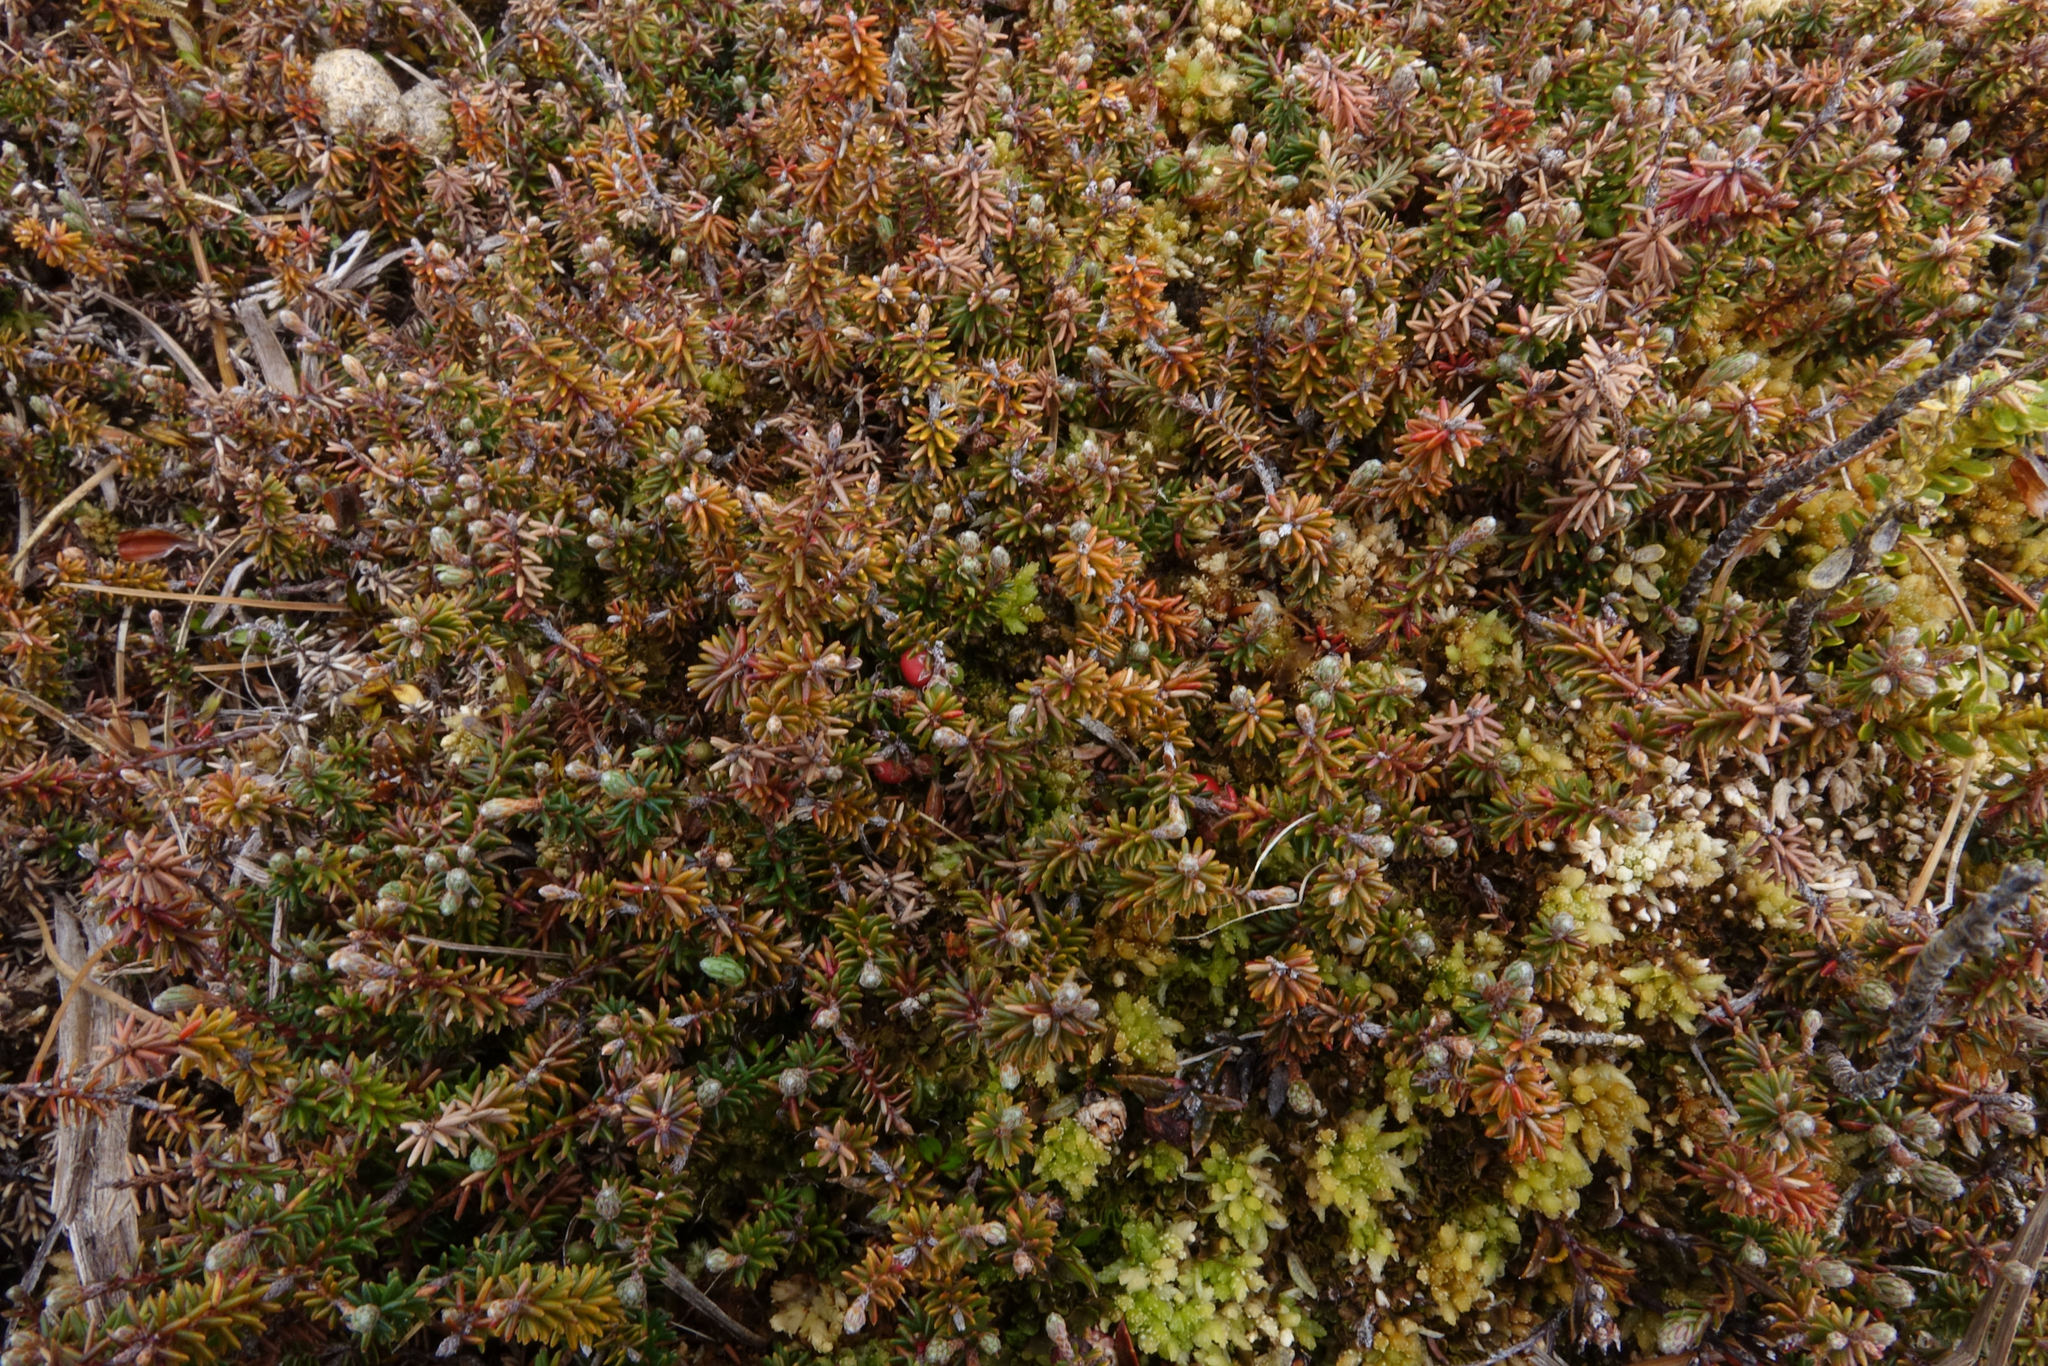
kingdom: Plantae
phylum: Tracheophyta
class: Magnoliopsida
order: Ericales
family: Ericaceae
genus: Androstoma
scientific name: Androstoma empetrifolia
